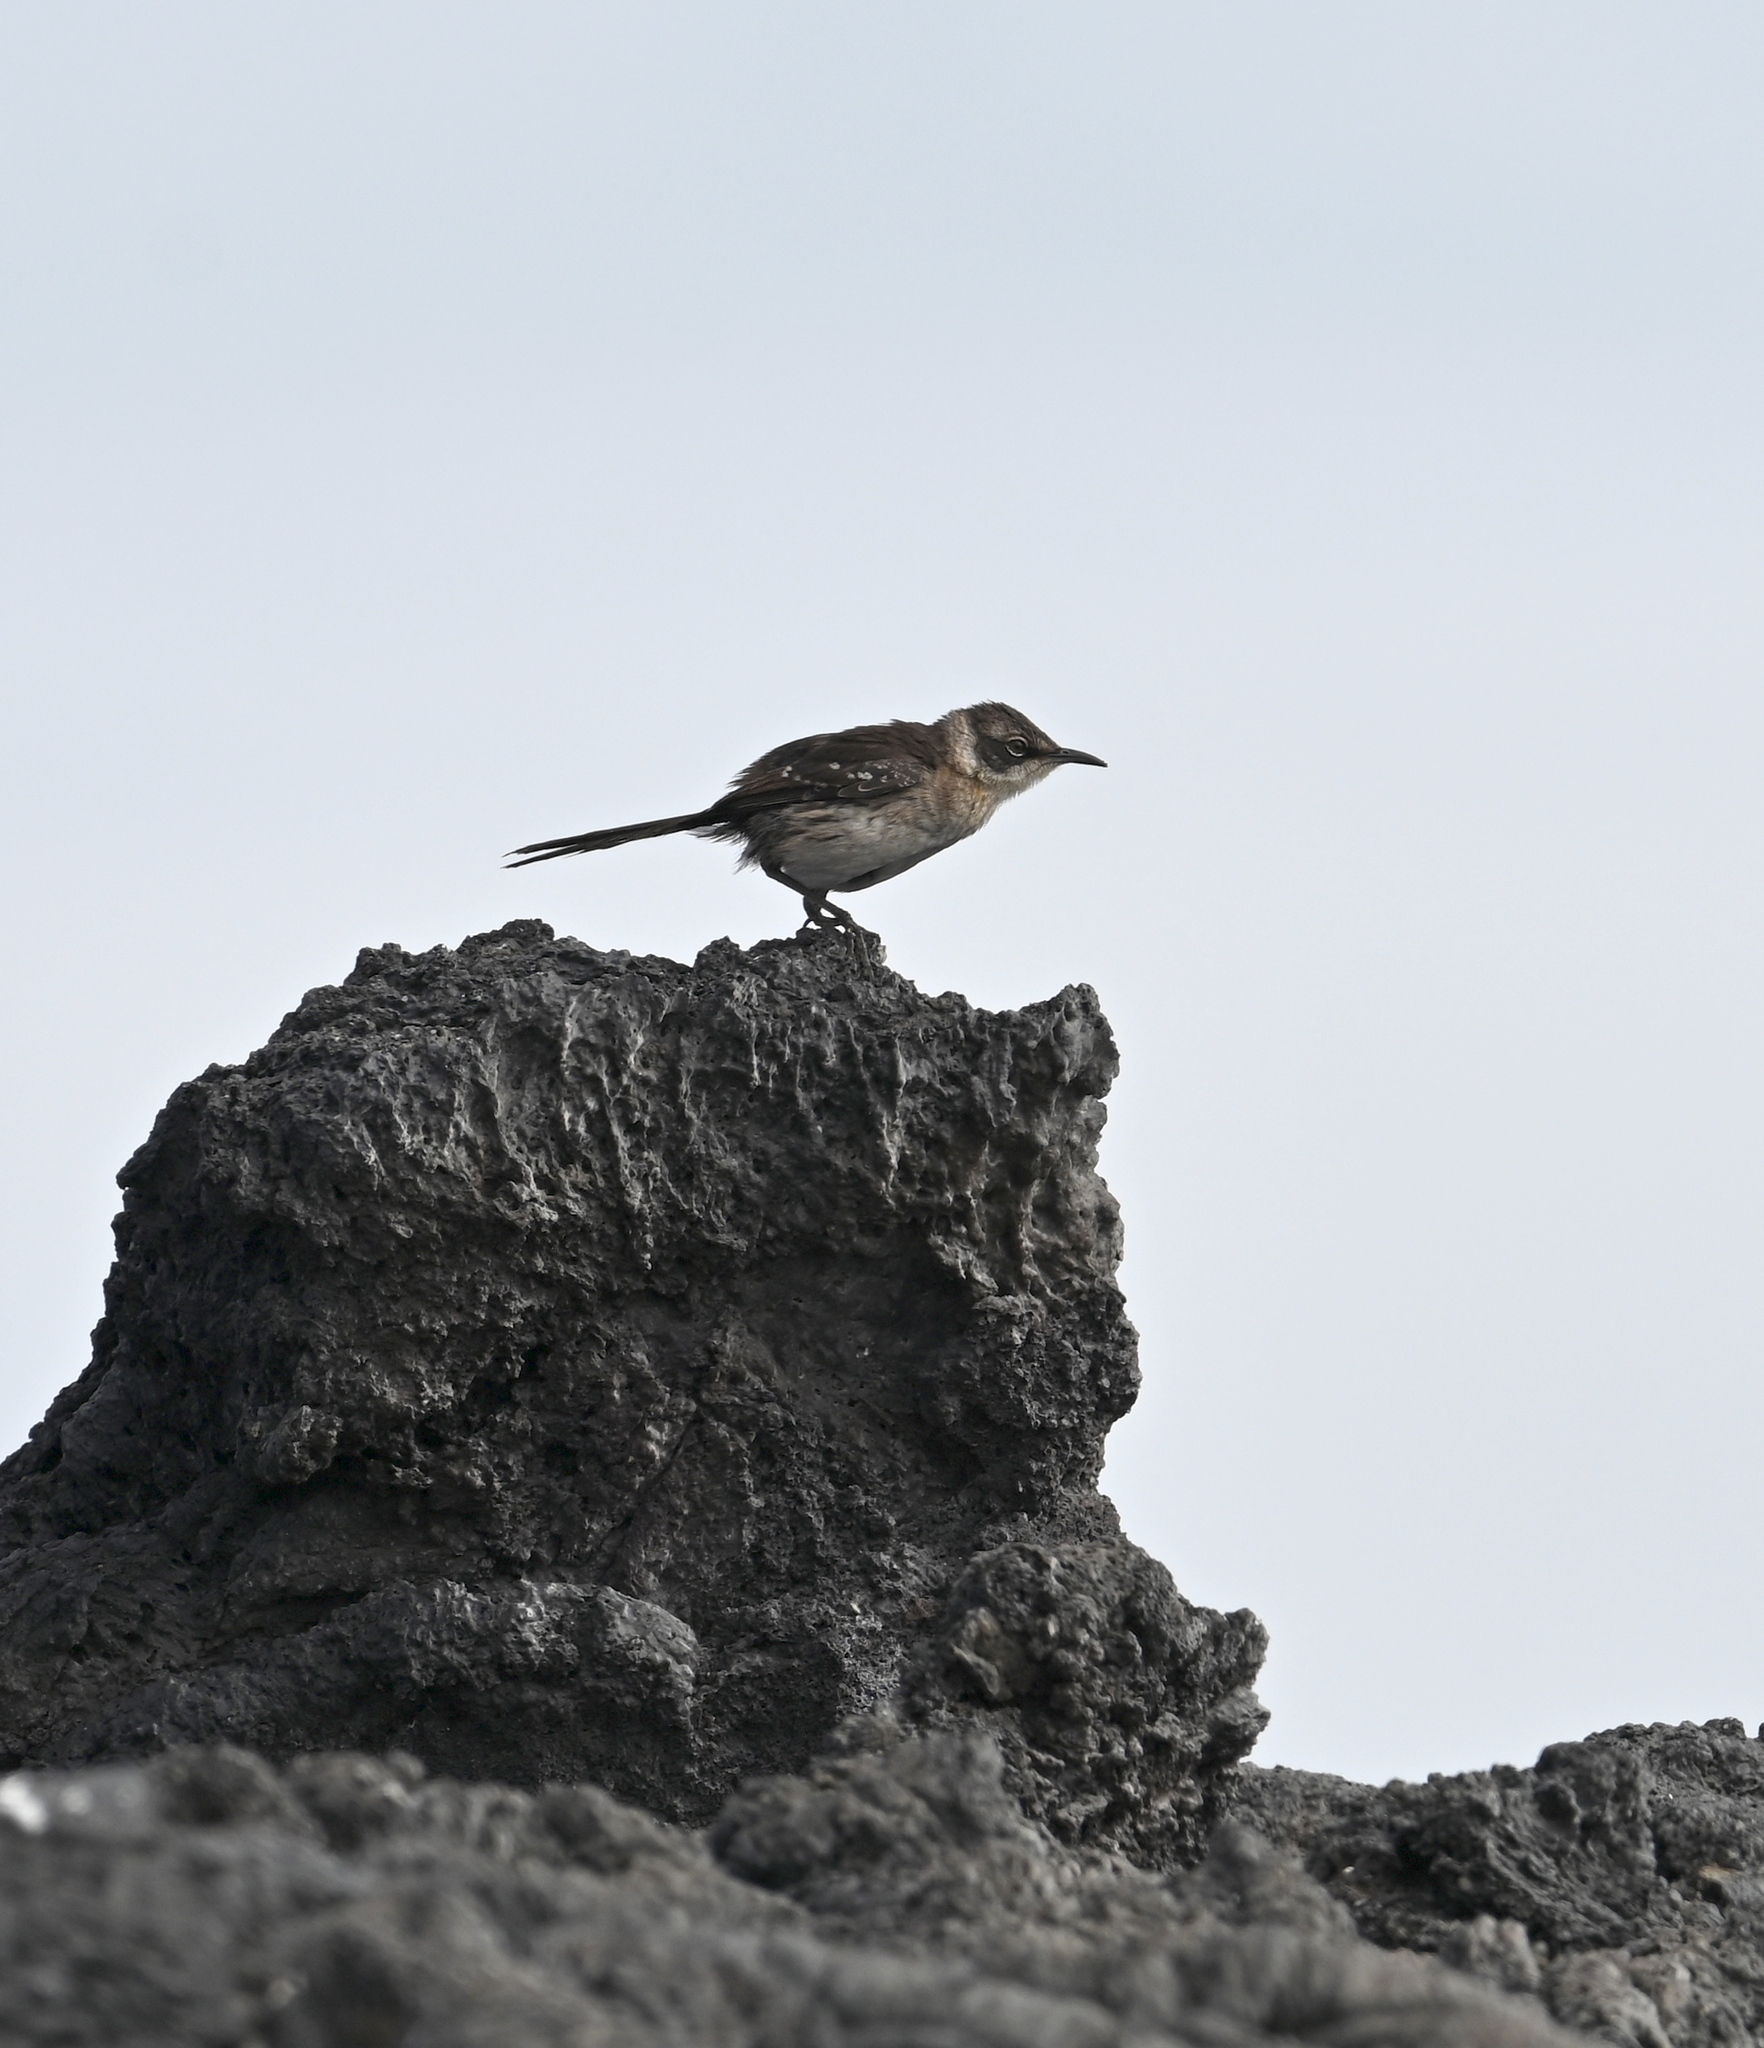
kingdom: Animalia
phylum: Chordata
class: Aves
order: Passeriformes
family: Mimidae
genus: Mimus
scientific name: Mimus parvulus
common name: Galapagos mockingbird
